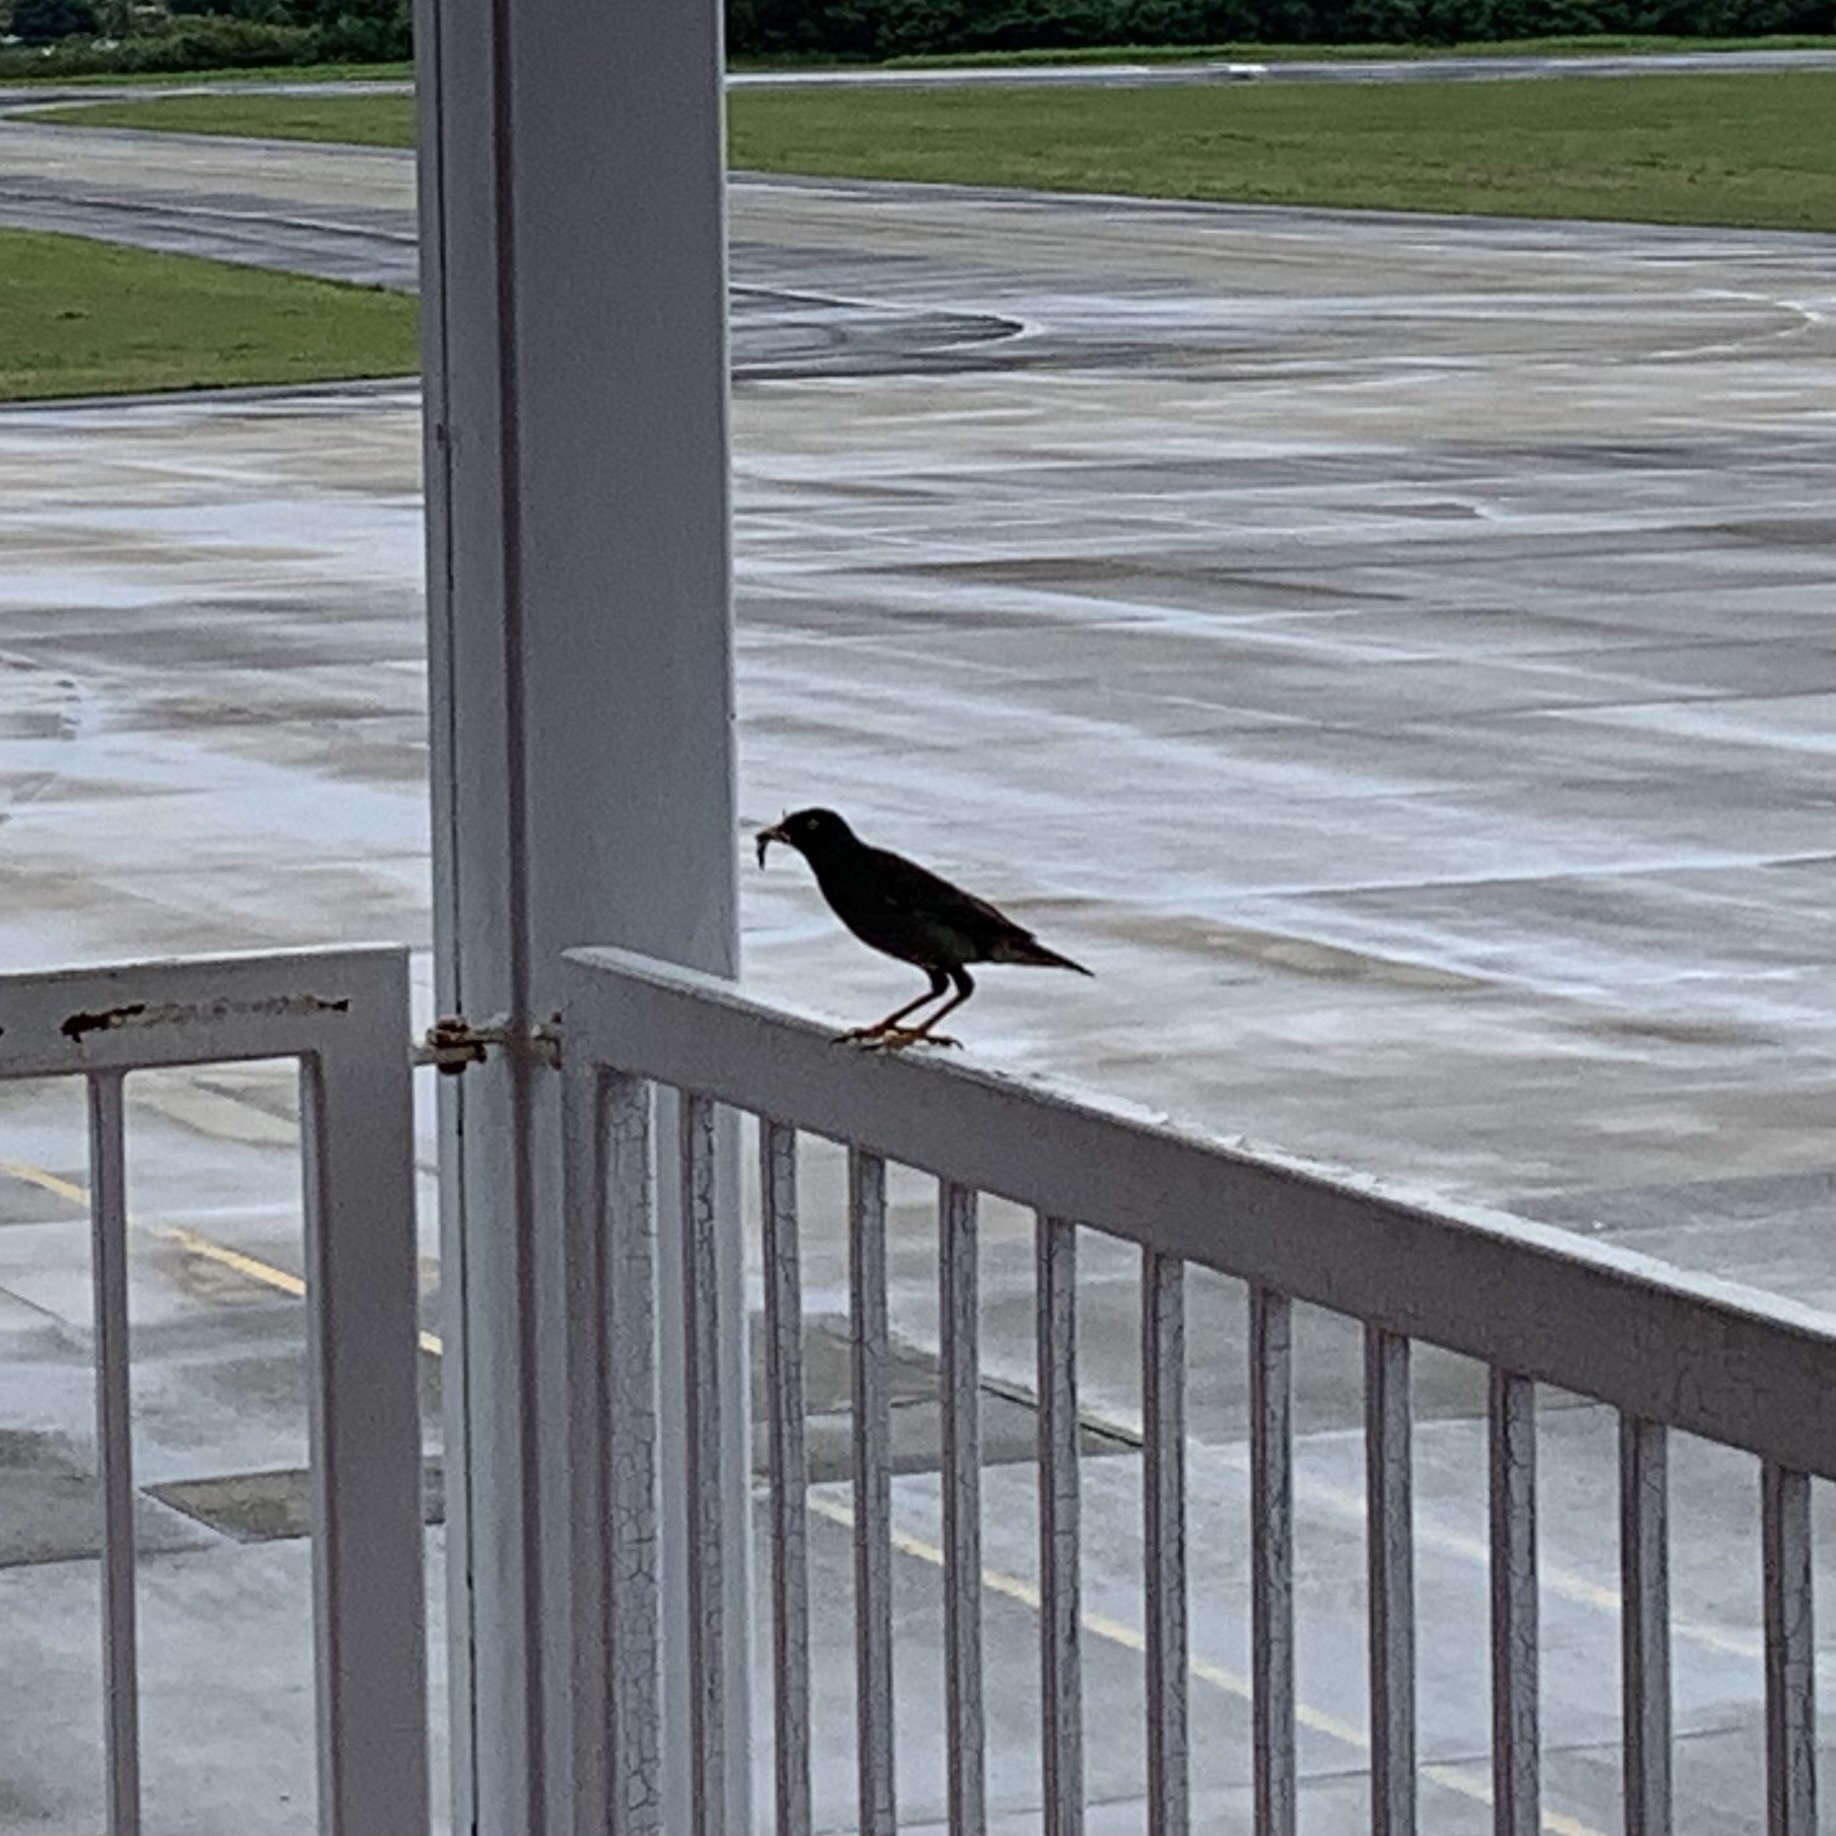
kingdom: Animalia
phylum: Chordata
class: Aves
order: Passeriformes
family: Sturnidae
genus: Acridotheres
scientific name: Acridotheres fuscus
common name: Jungle myna
